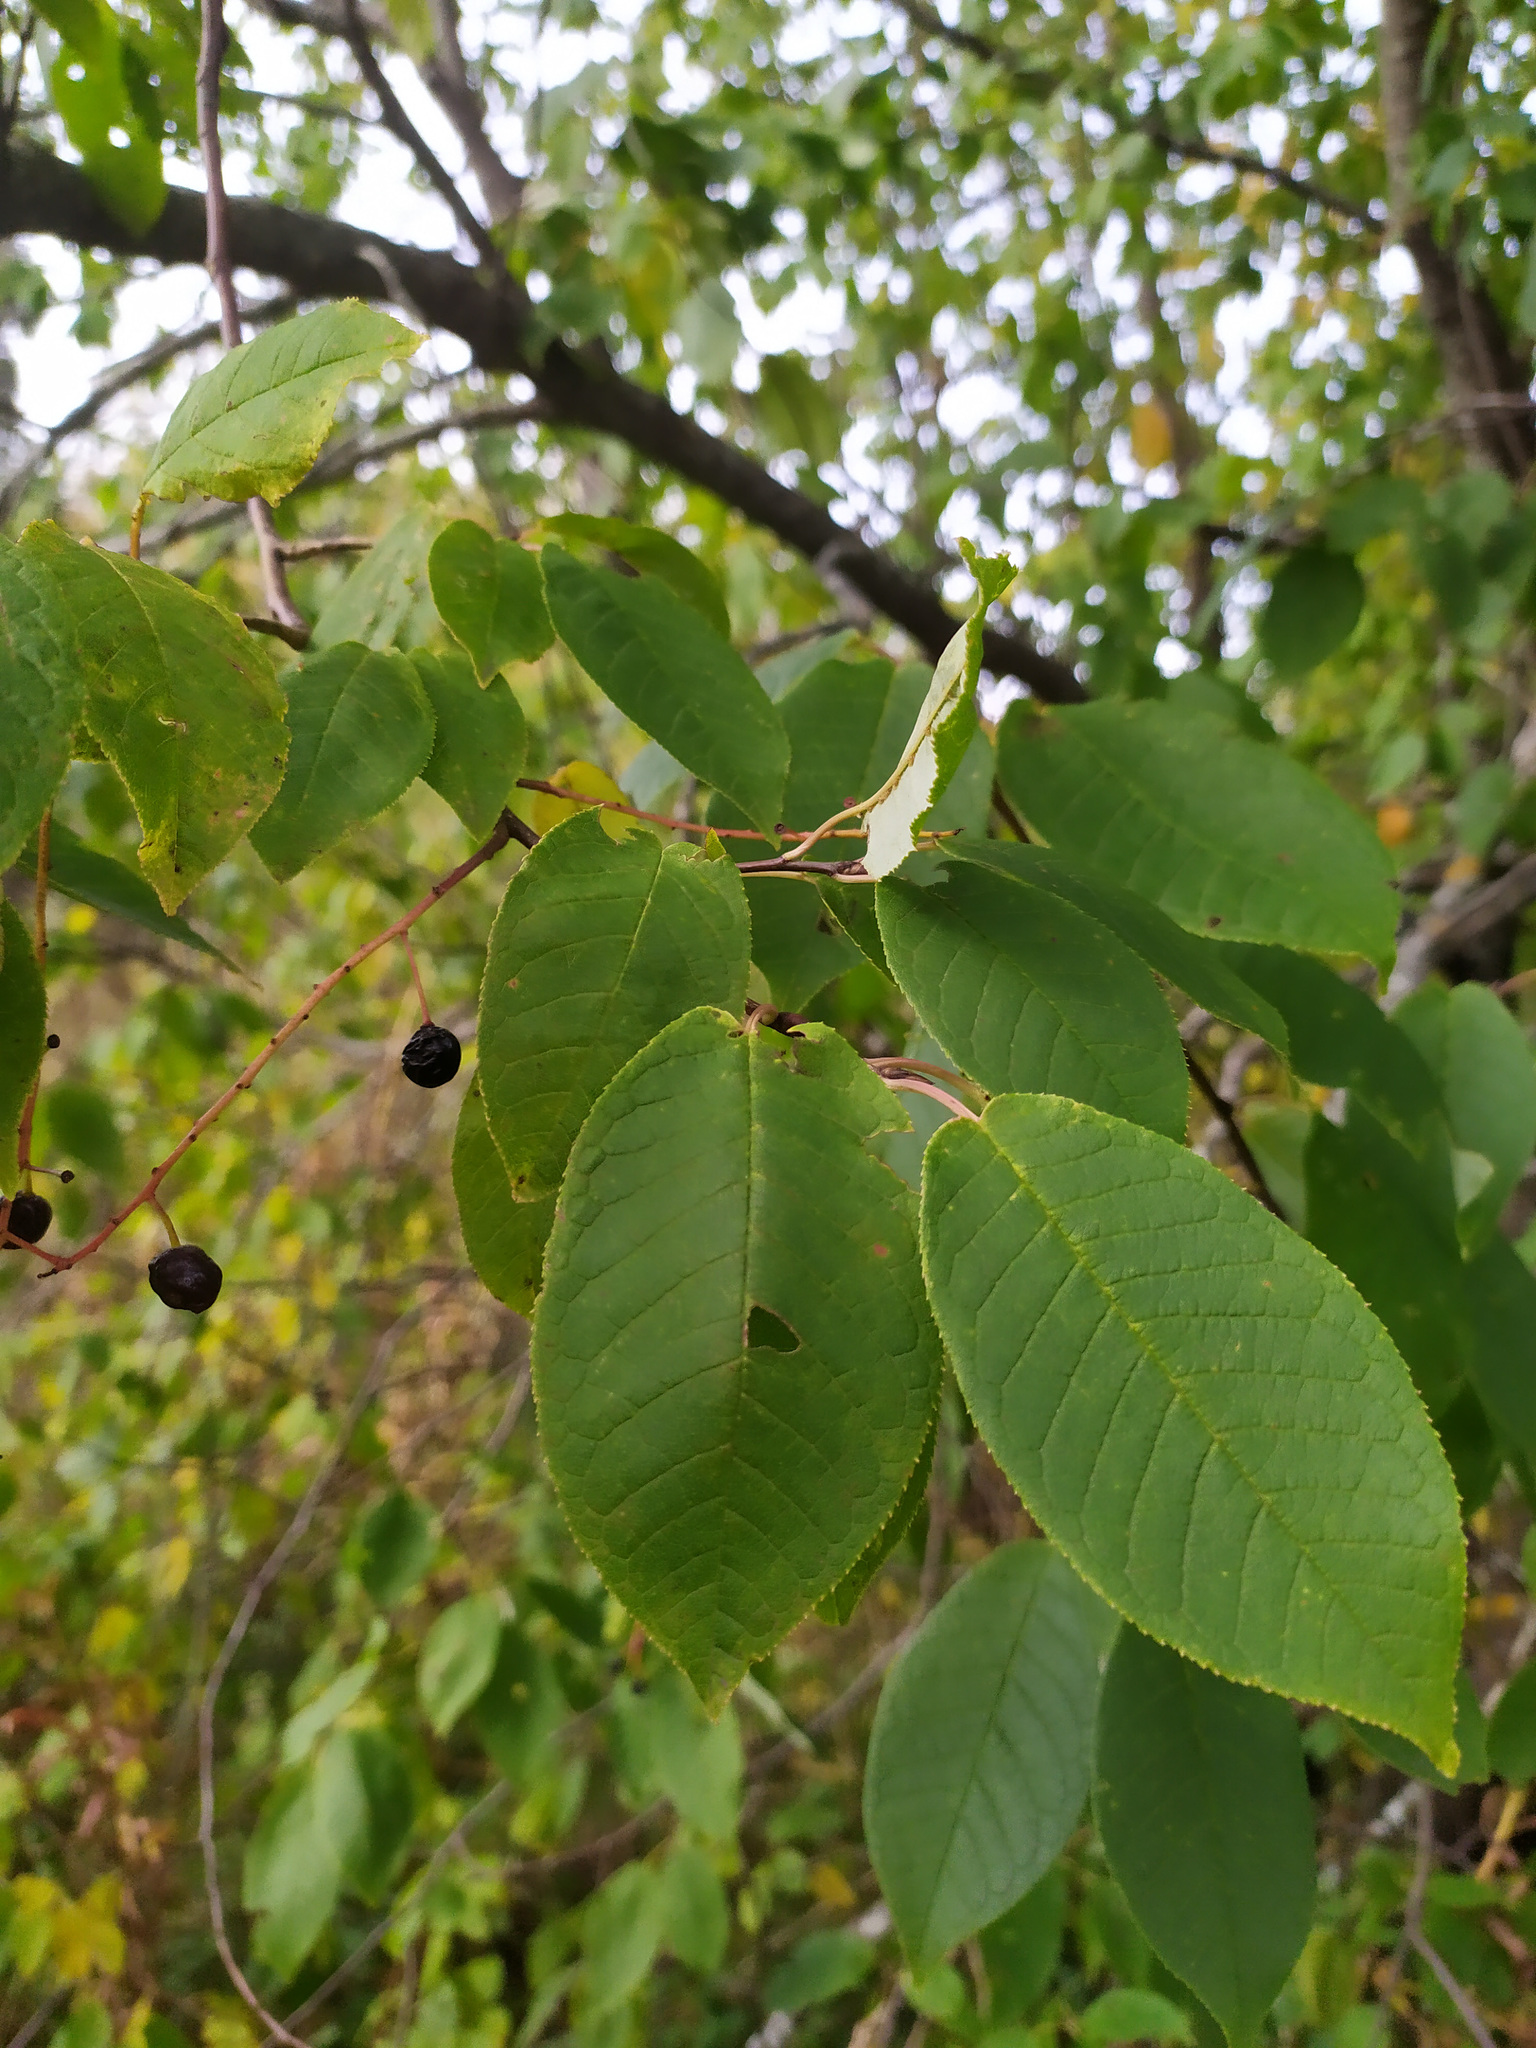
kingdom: Plantae
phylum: Tracheophyta
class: Magnoliopsida
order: Rosales
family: Rosaceae
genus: Prunus
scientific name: Prunus padus
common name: Bird cherry
